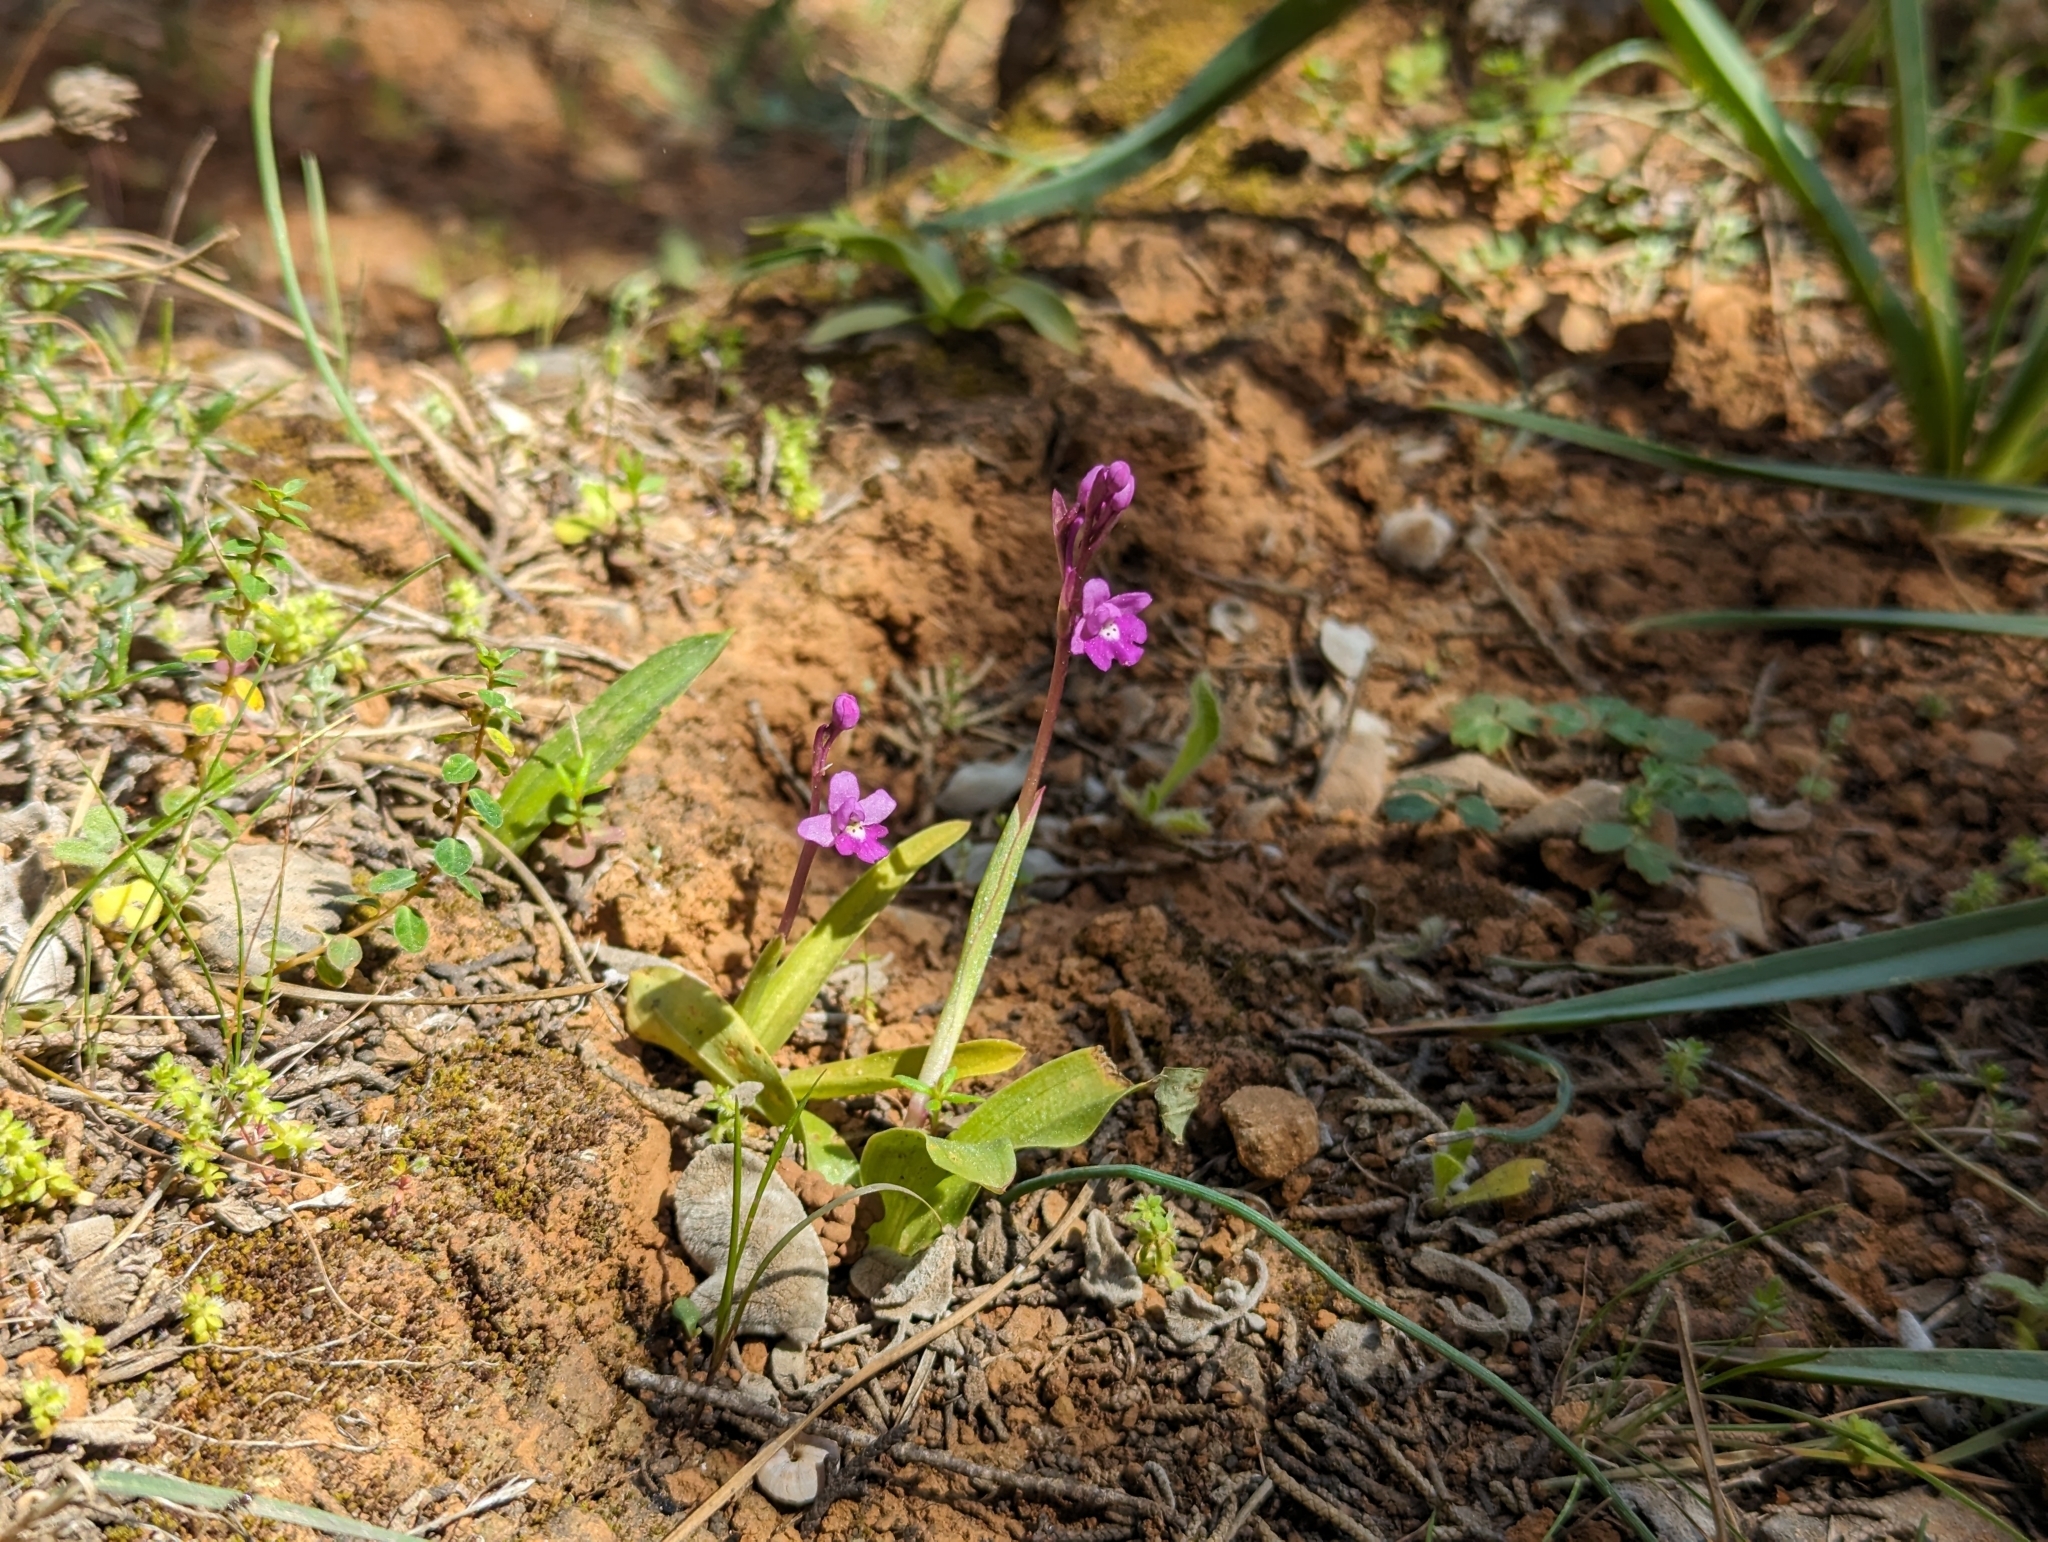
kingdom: Plantae
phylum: Tracheophyta
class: Liliopsida
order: Asparagales
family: Orchidaceae
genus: Orchis
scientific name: Orchis quadripunctata
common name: Four-spotted orchid
